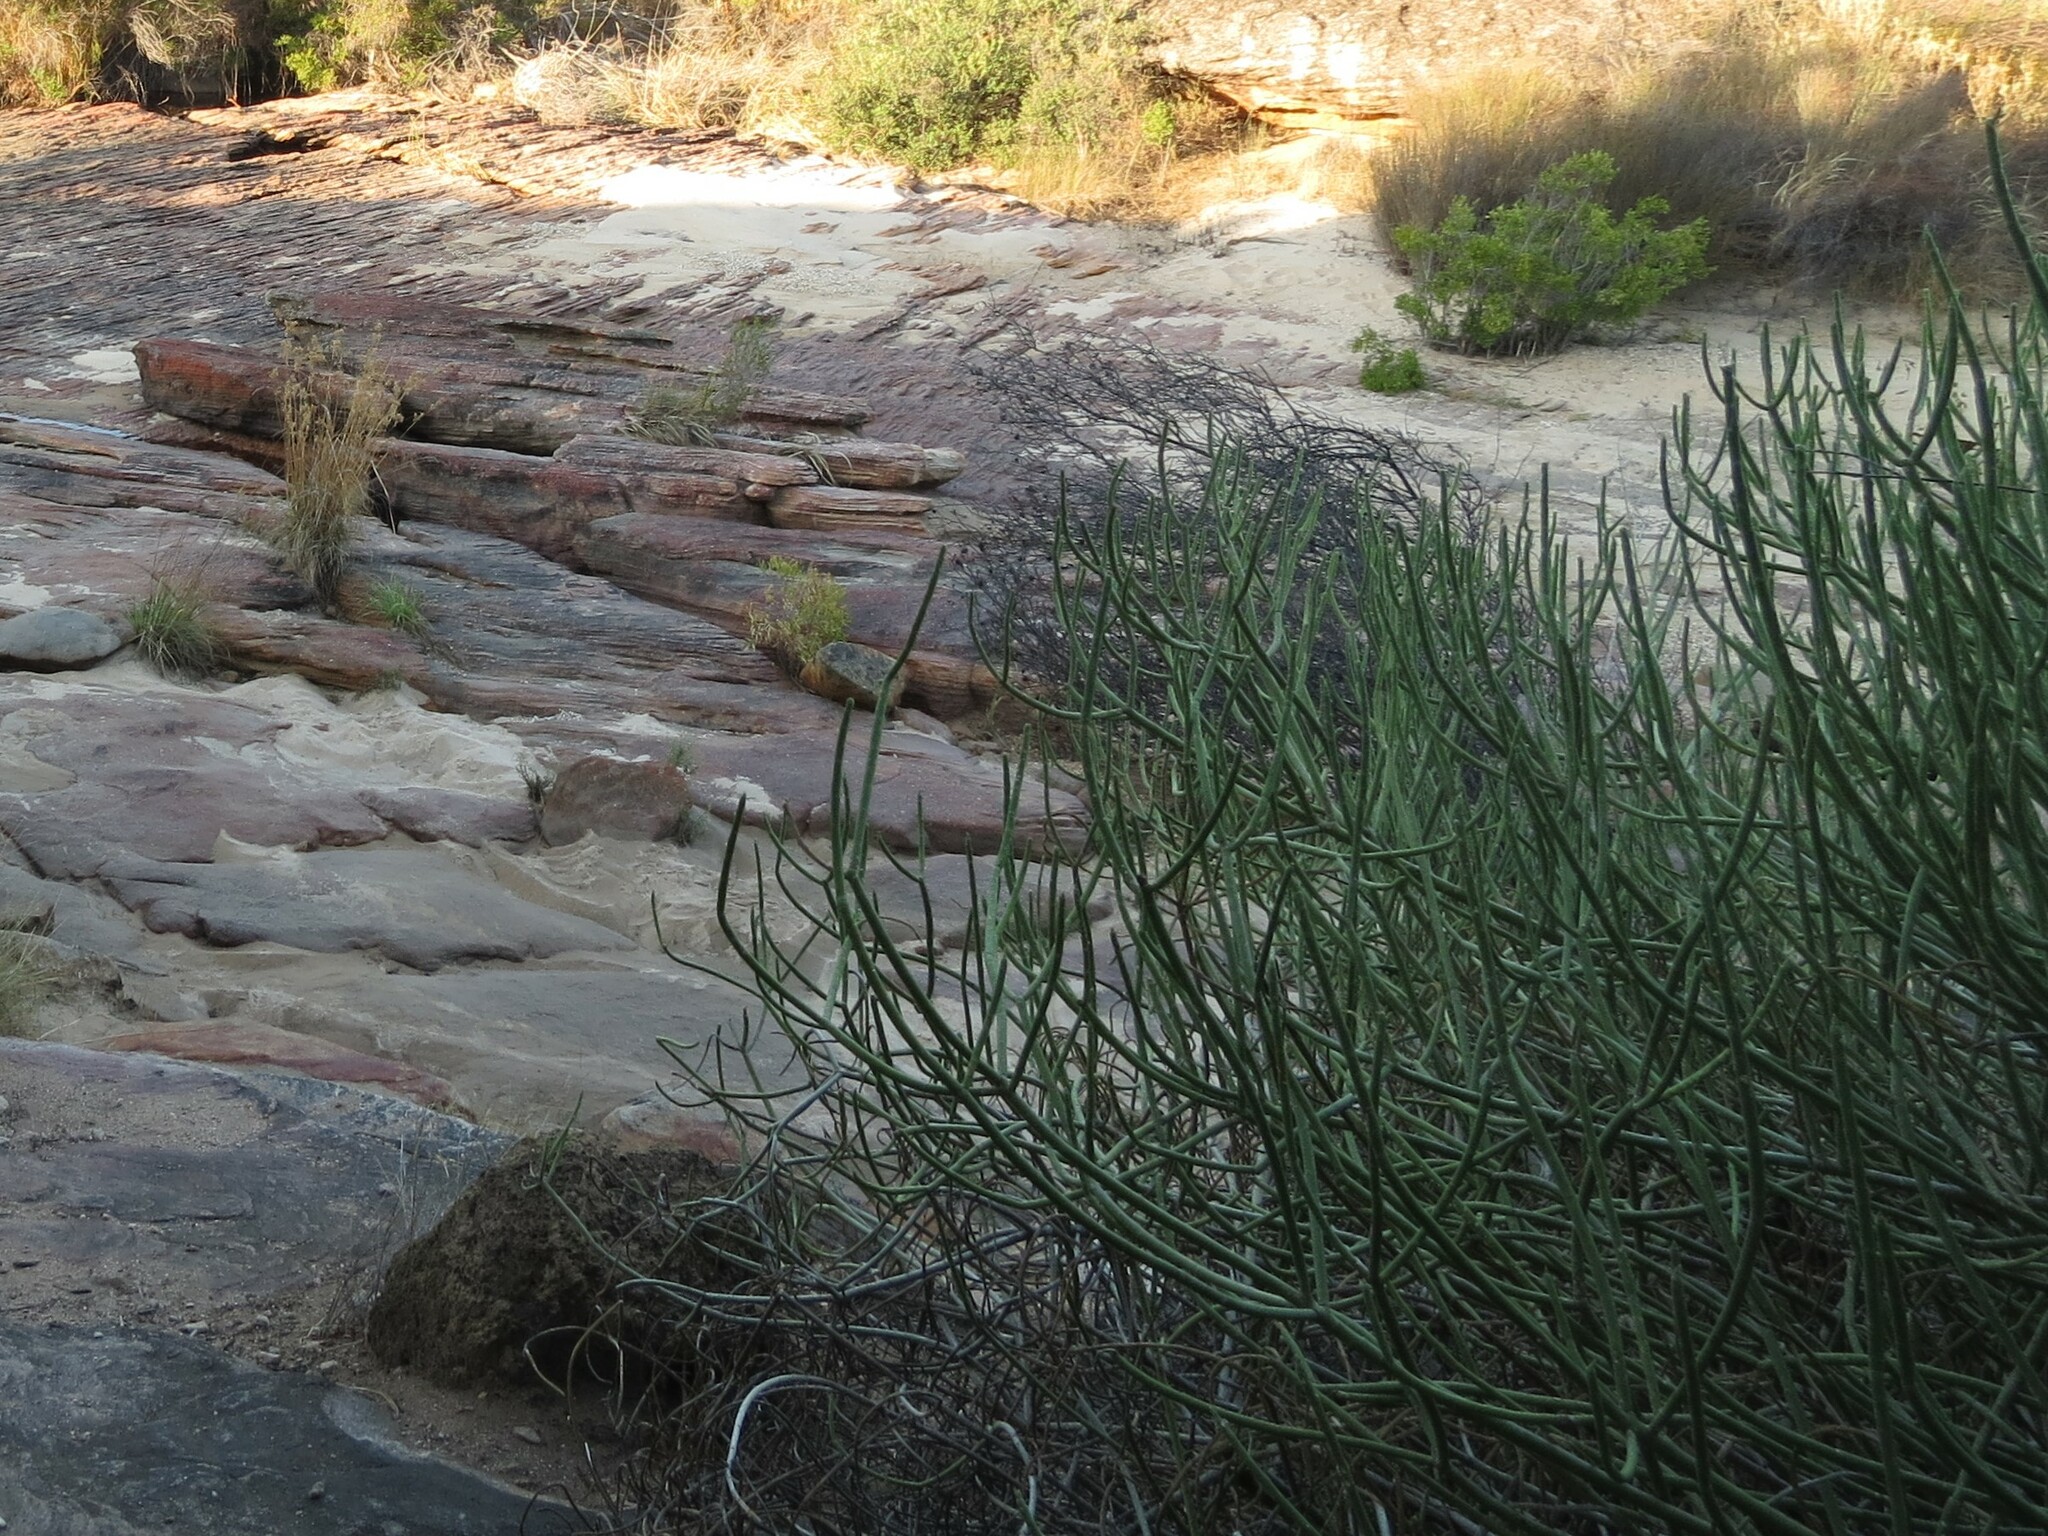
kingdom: Plantae
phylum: Tracheophyta
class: Magnoliopsida
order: Malpighiales
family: Euphorbiaceae
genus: Euphorbia
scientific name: Euphorbia mauritanica
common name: Jackal's-food
